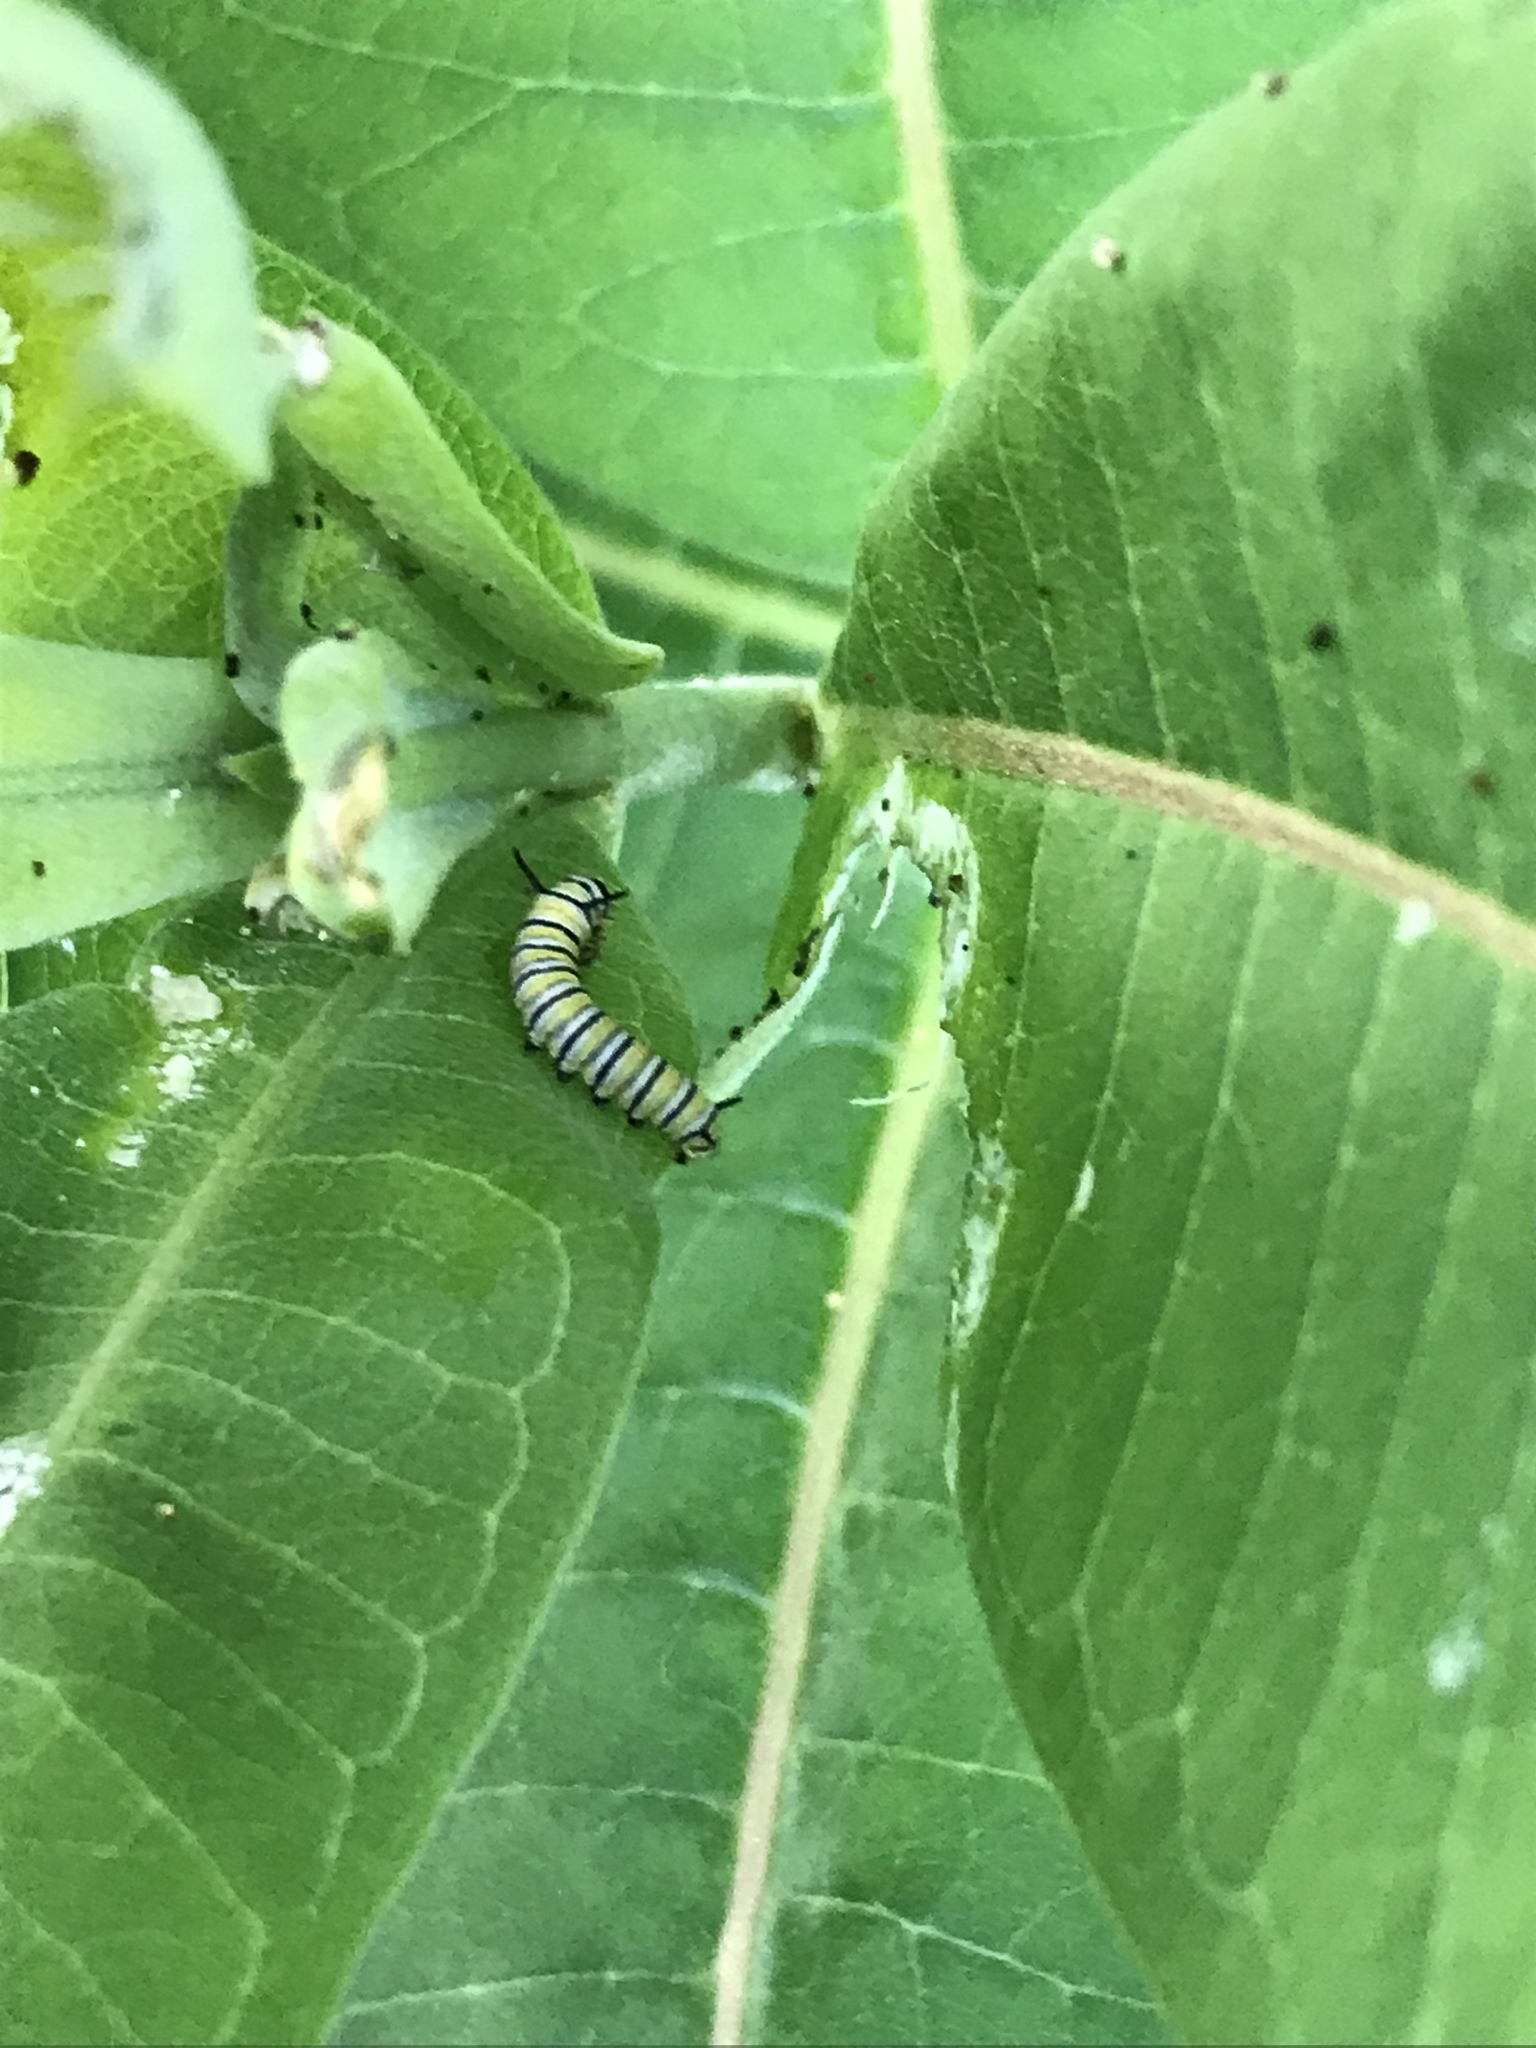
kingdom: Animalia
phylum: Arthropoda
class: Insecta
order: Lepidoptera
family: Nymphalidae
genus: Danaus
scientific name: Danaus plexippus
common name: Monarch
